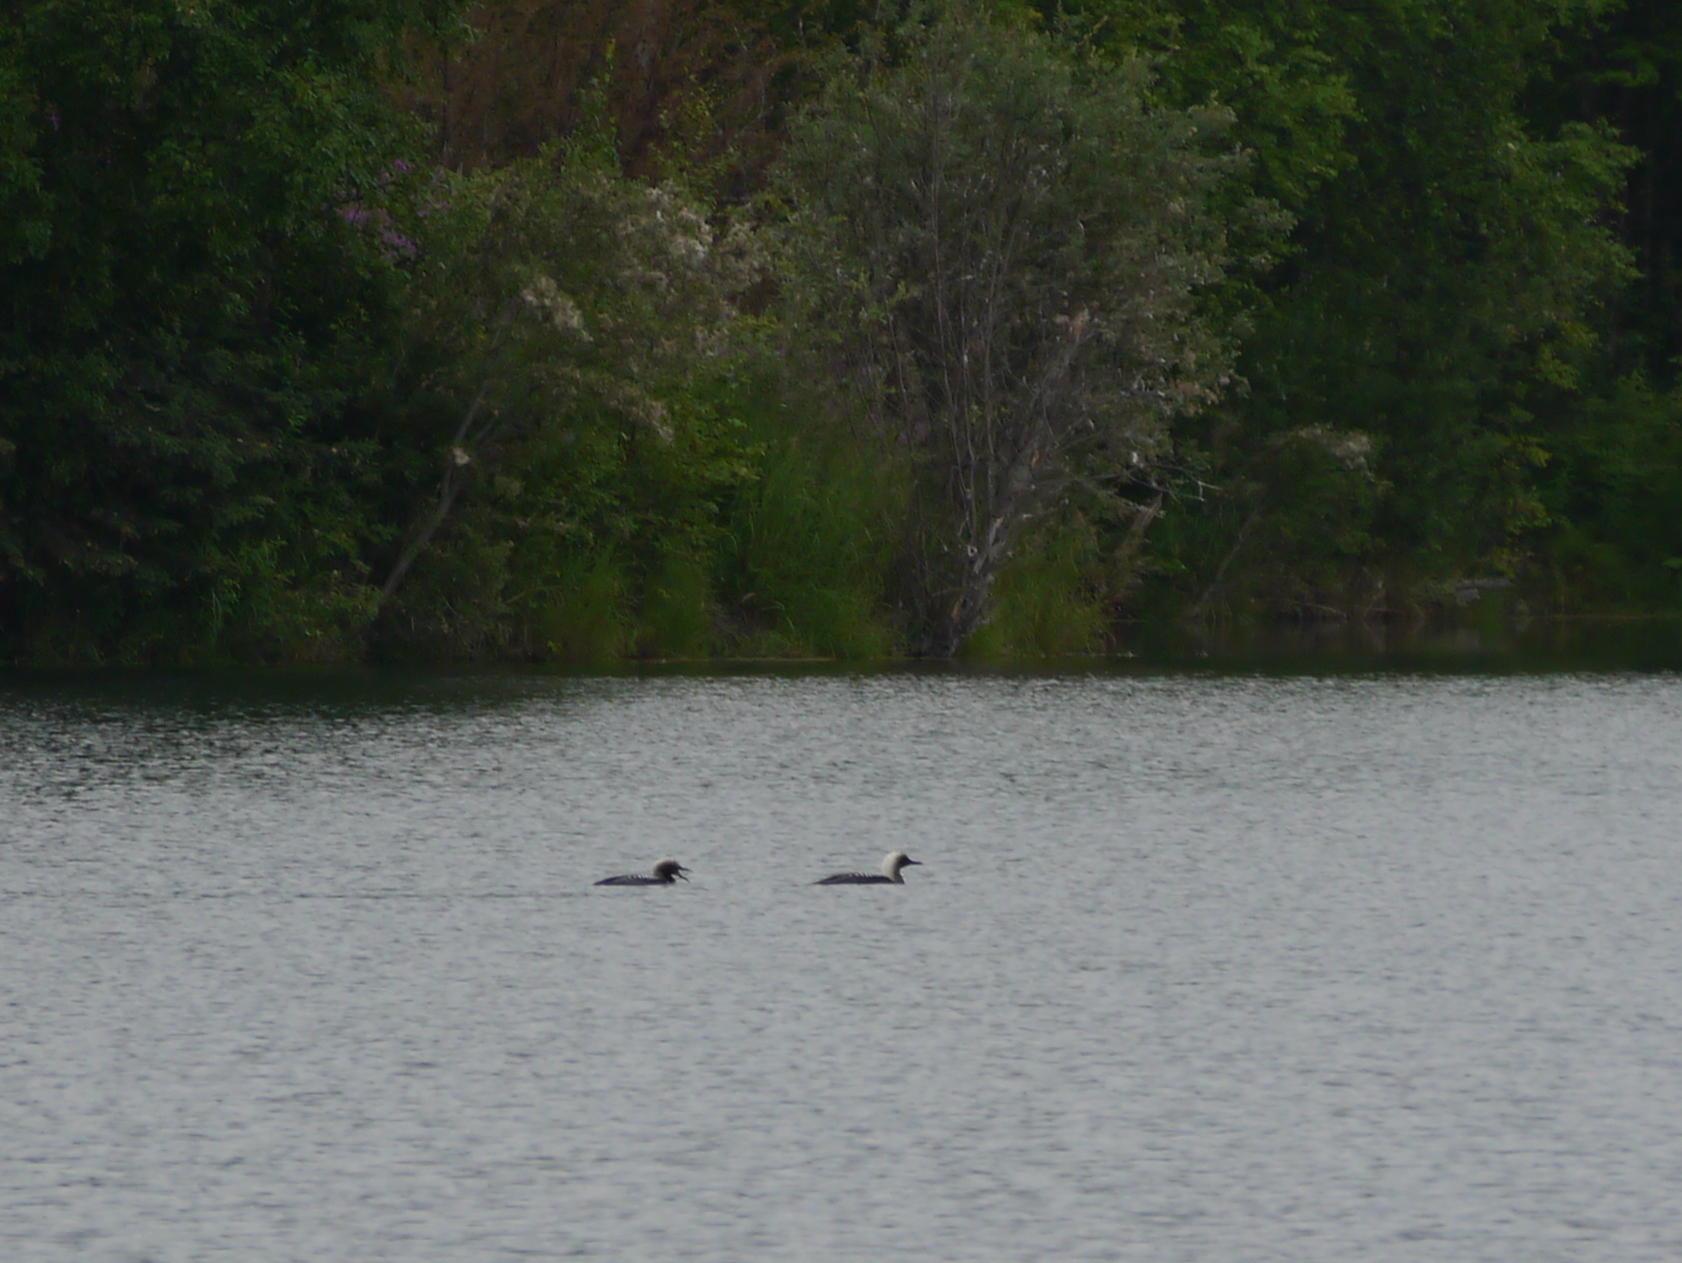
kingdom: Animalia
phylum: Chordata
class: Aves
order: Gaviiformes
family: Gaviidae
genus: Gavia
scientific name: Gavia pacifica
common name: Pacific loon
